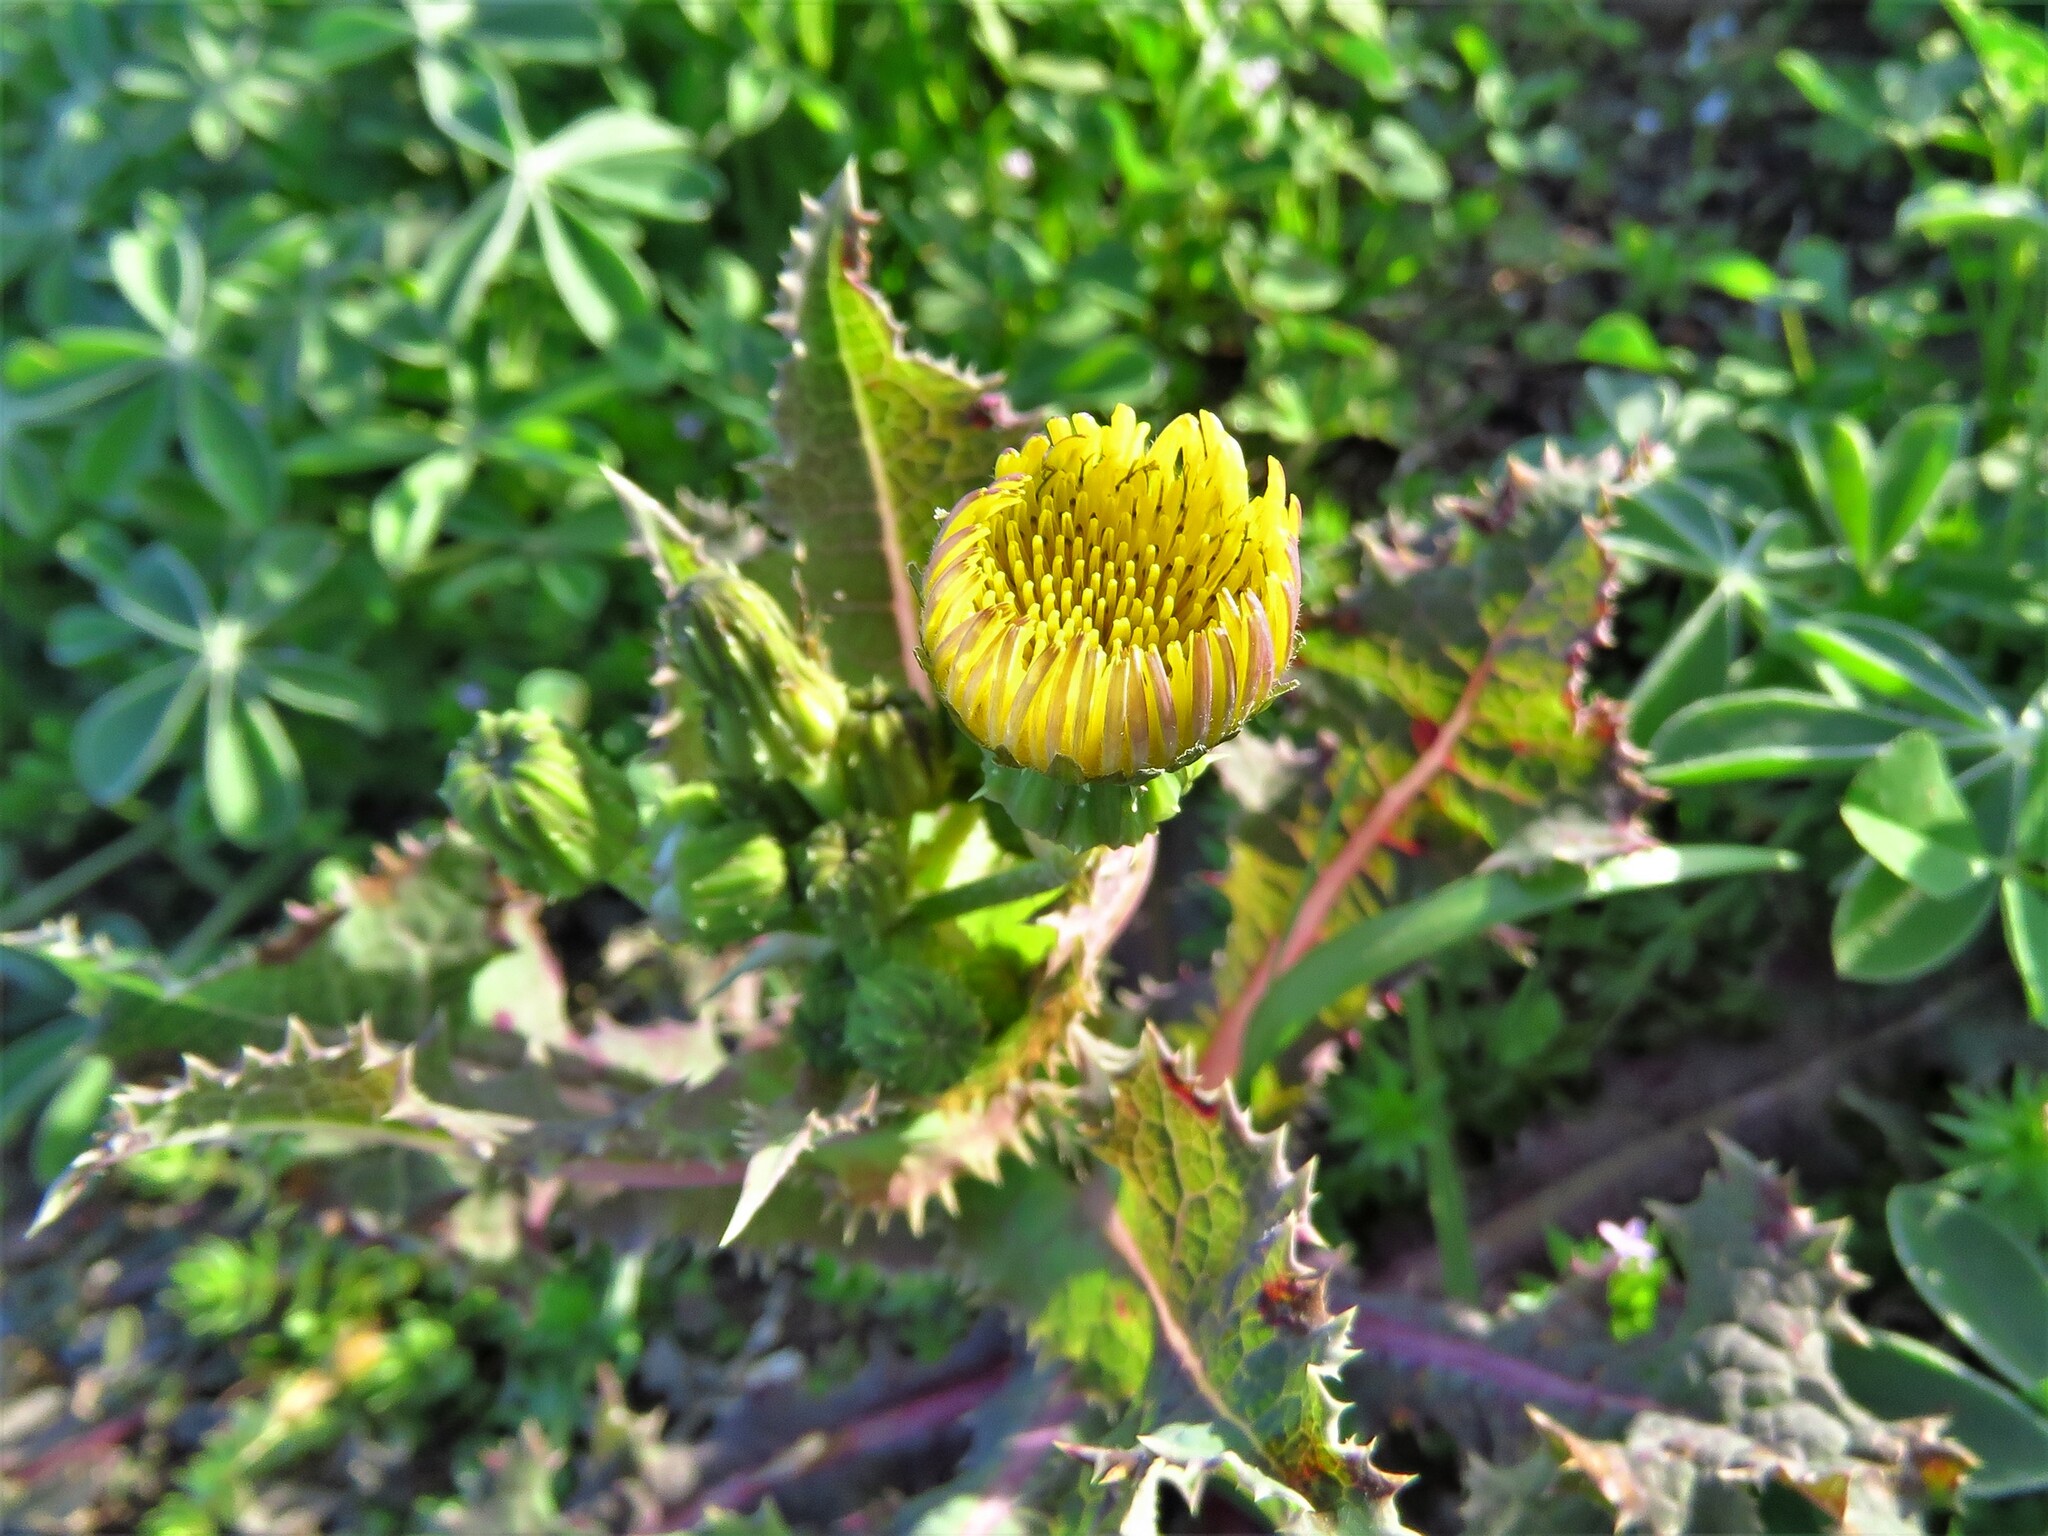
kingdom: Plantae
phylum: Tracheophyta
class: Magnoliopsida
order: Asterales
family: Asteraceae
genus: Sonchus
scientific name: Sonchus asper
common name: Prickly sow-thistle
